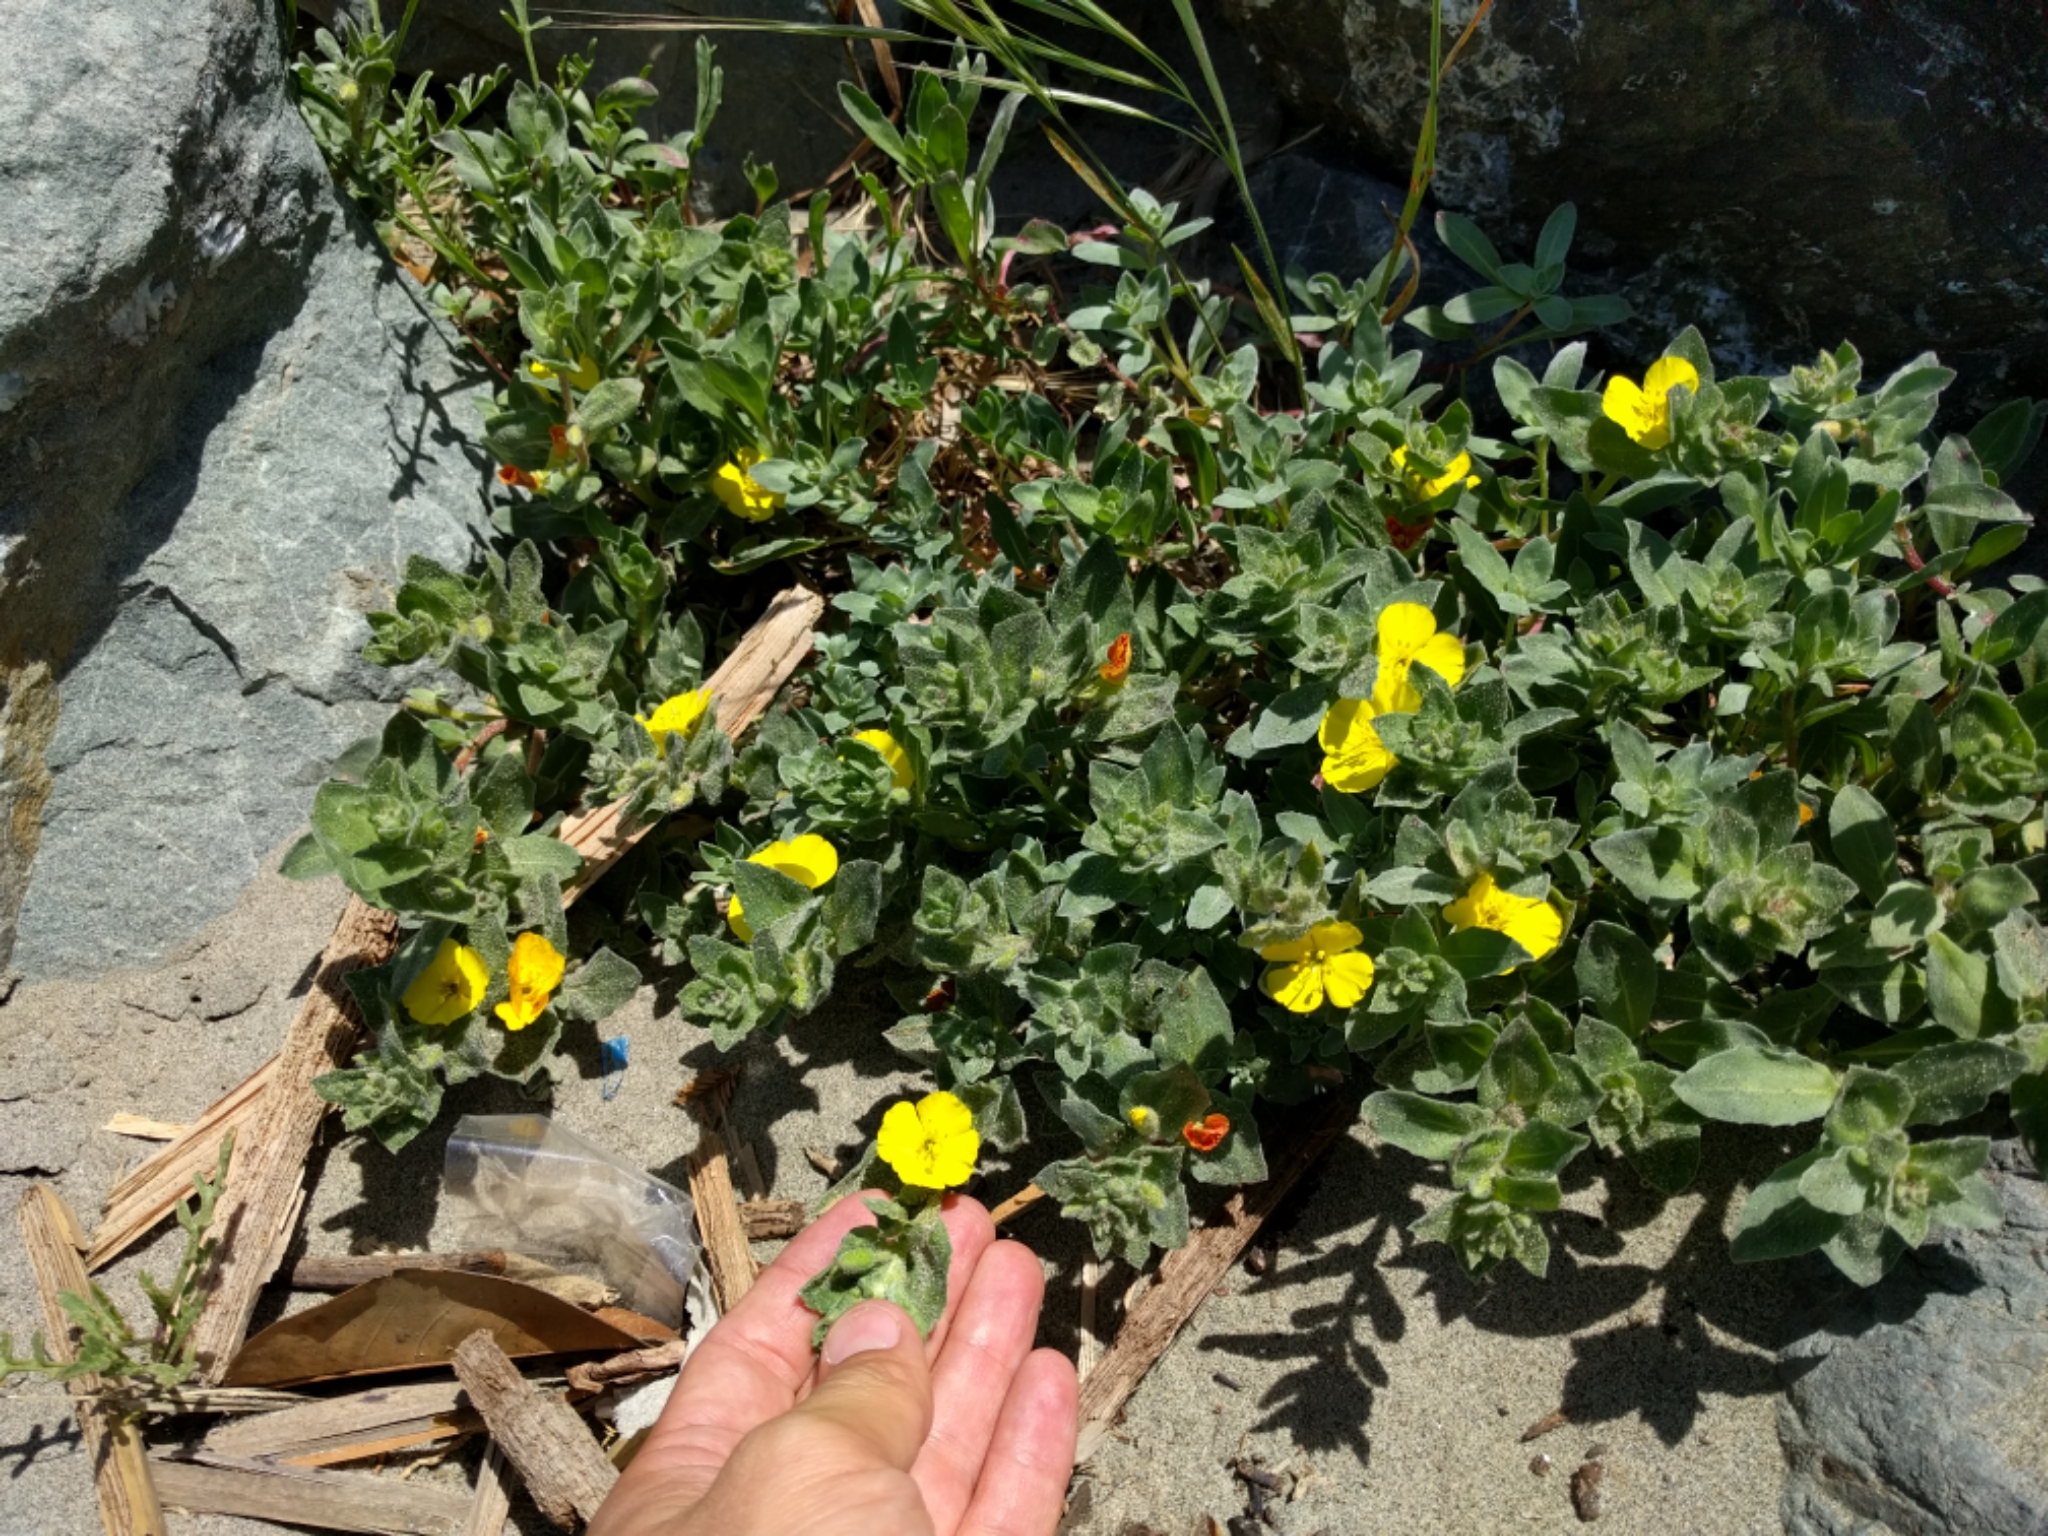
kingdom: Plantae
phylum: Tracheophyta
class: Magnoliopsida
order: Myrtales
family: Onagraceae
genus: Camissoniopsis
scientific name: Camissoniopsis cheiranthifolia
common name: Beach suncup
